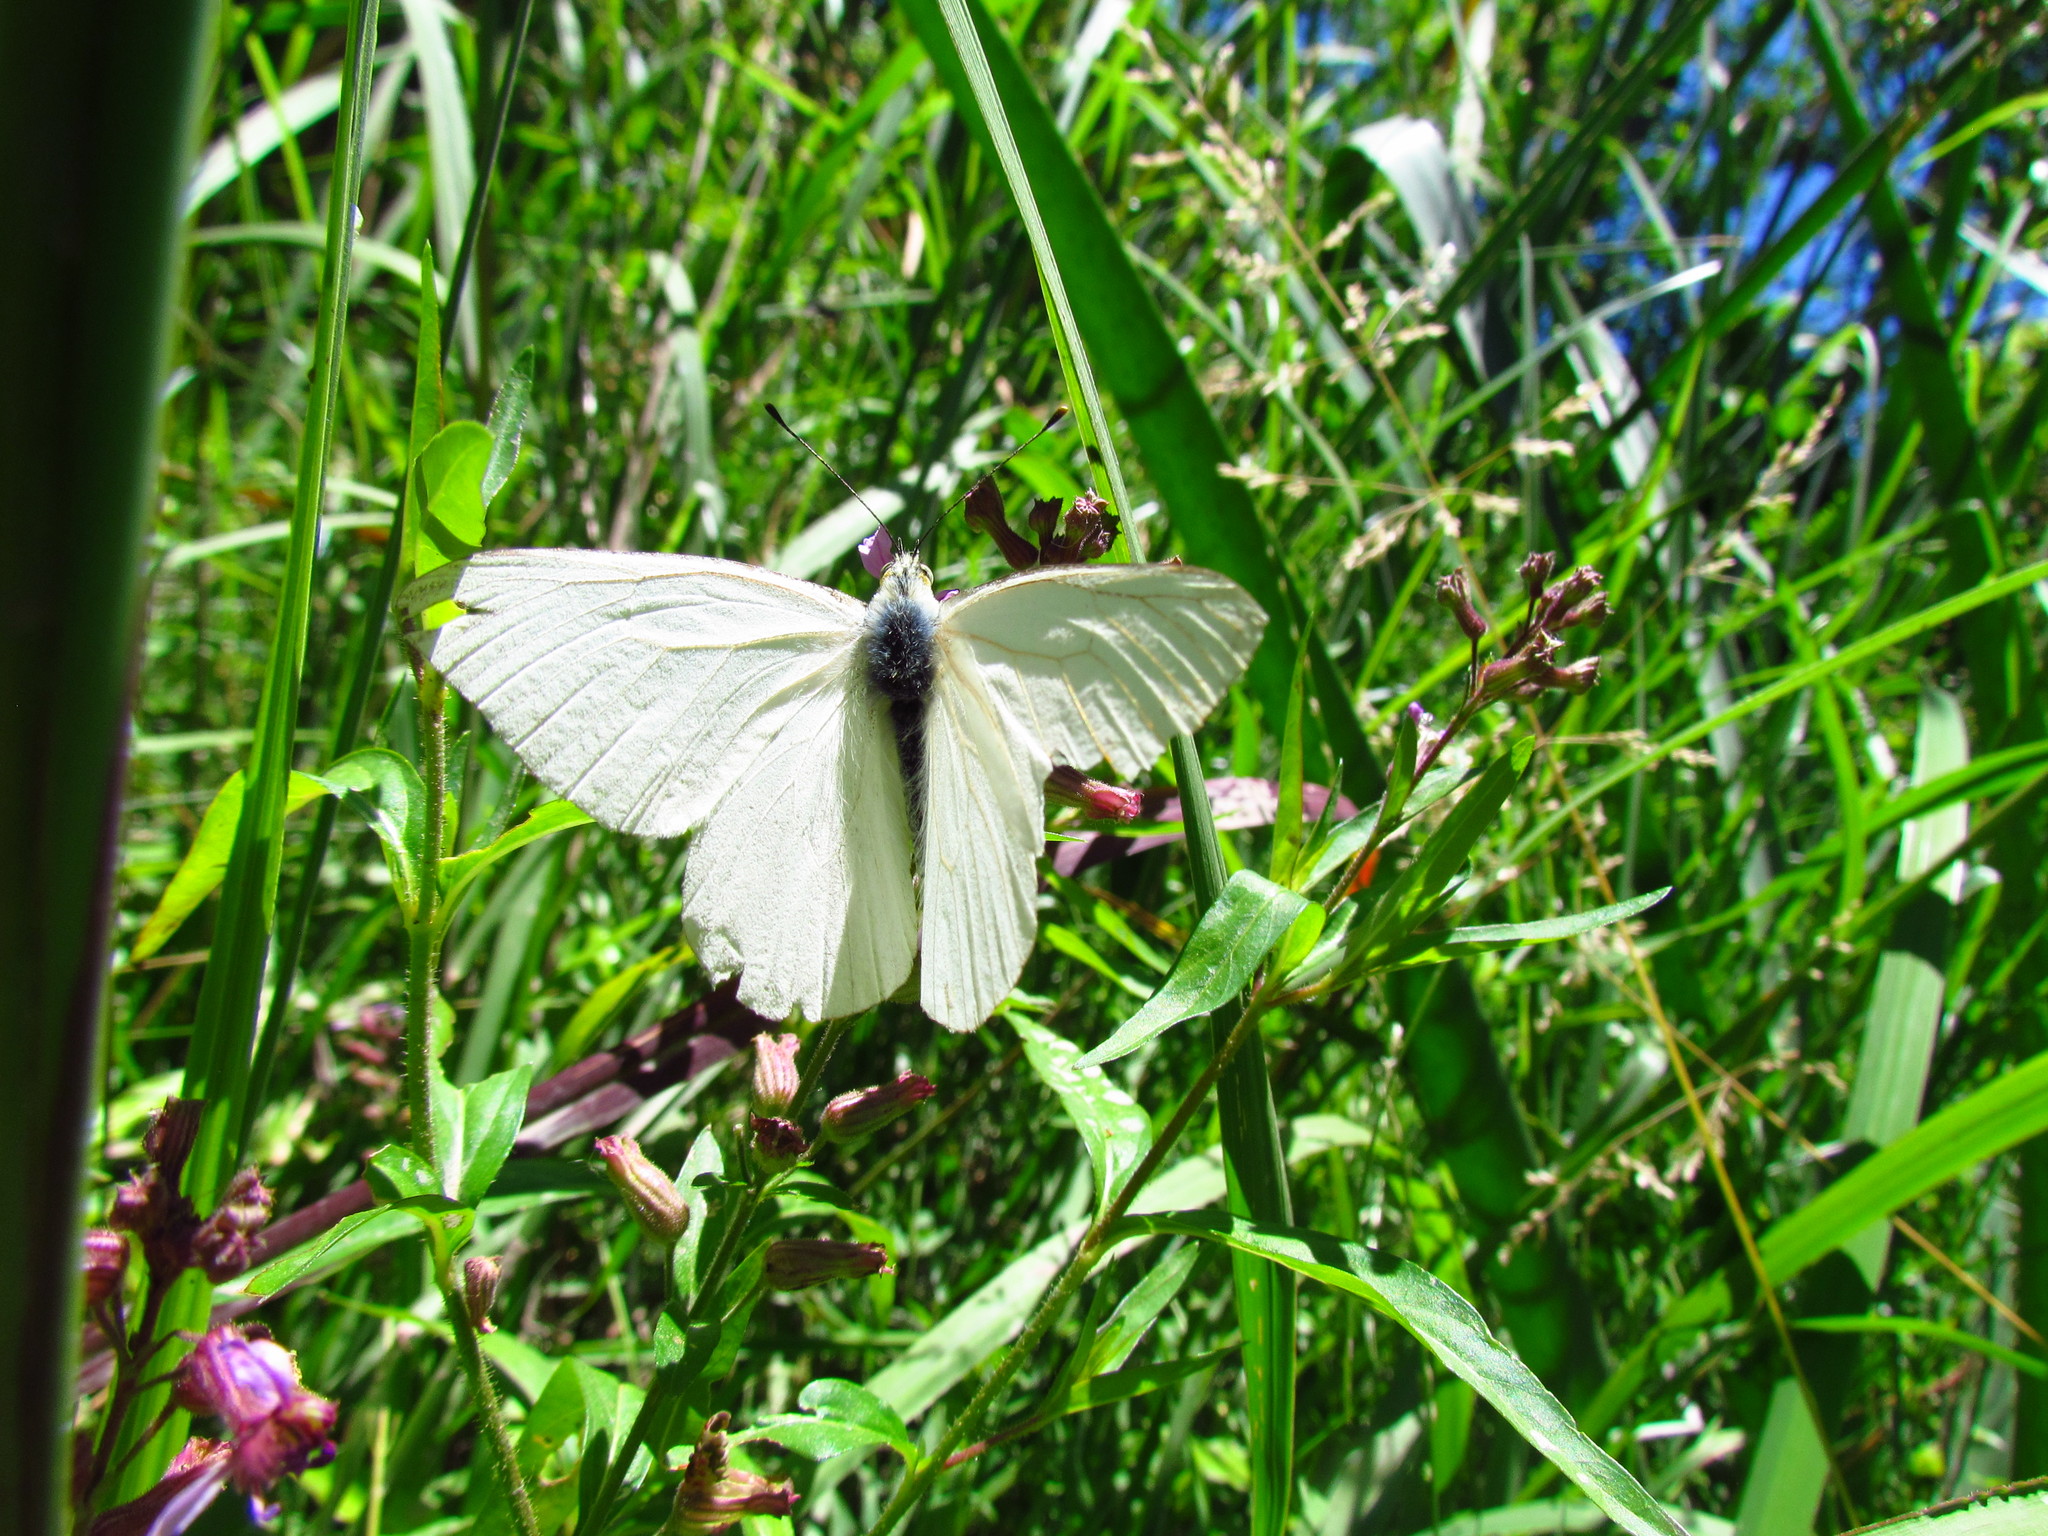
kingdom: Animalia
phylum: Arthropoda
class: Insecta
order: Lepidoptera
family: Pieridae
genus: Theochila
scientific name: Theochila maenacte
